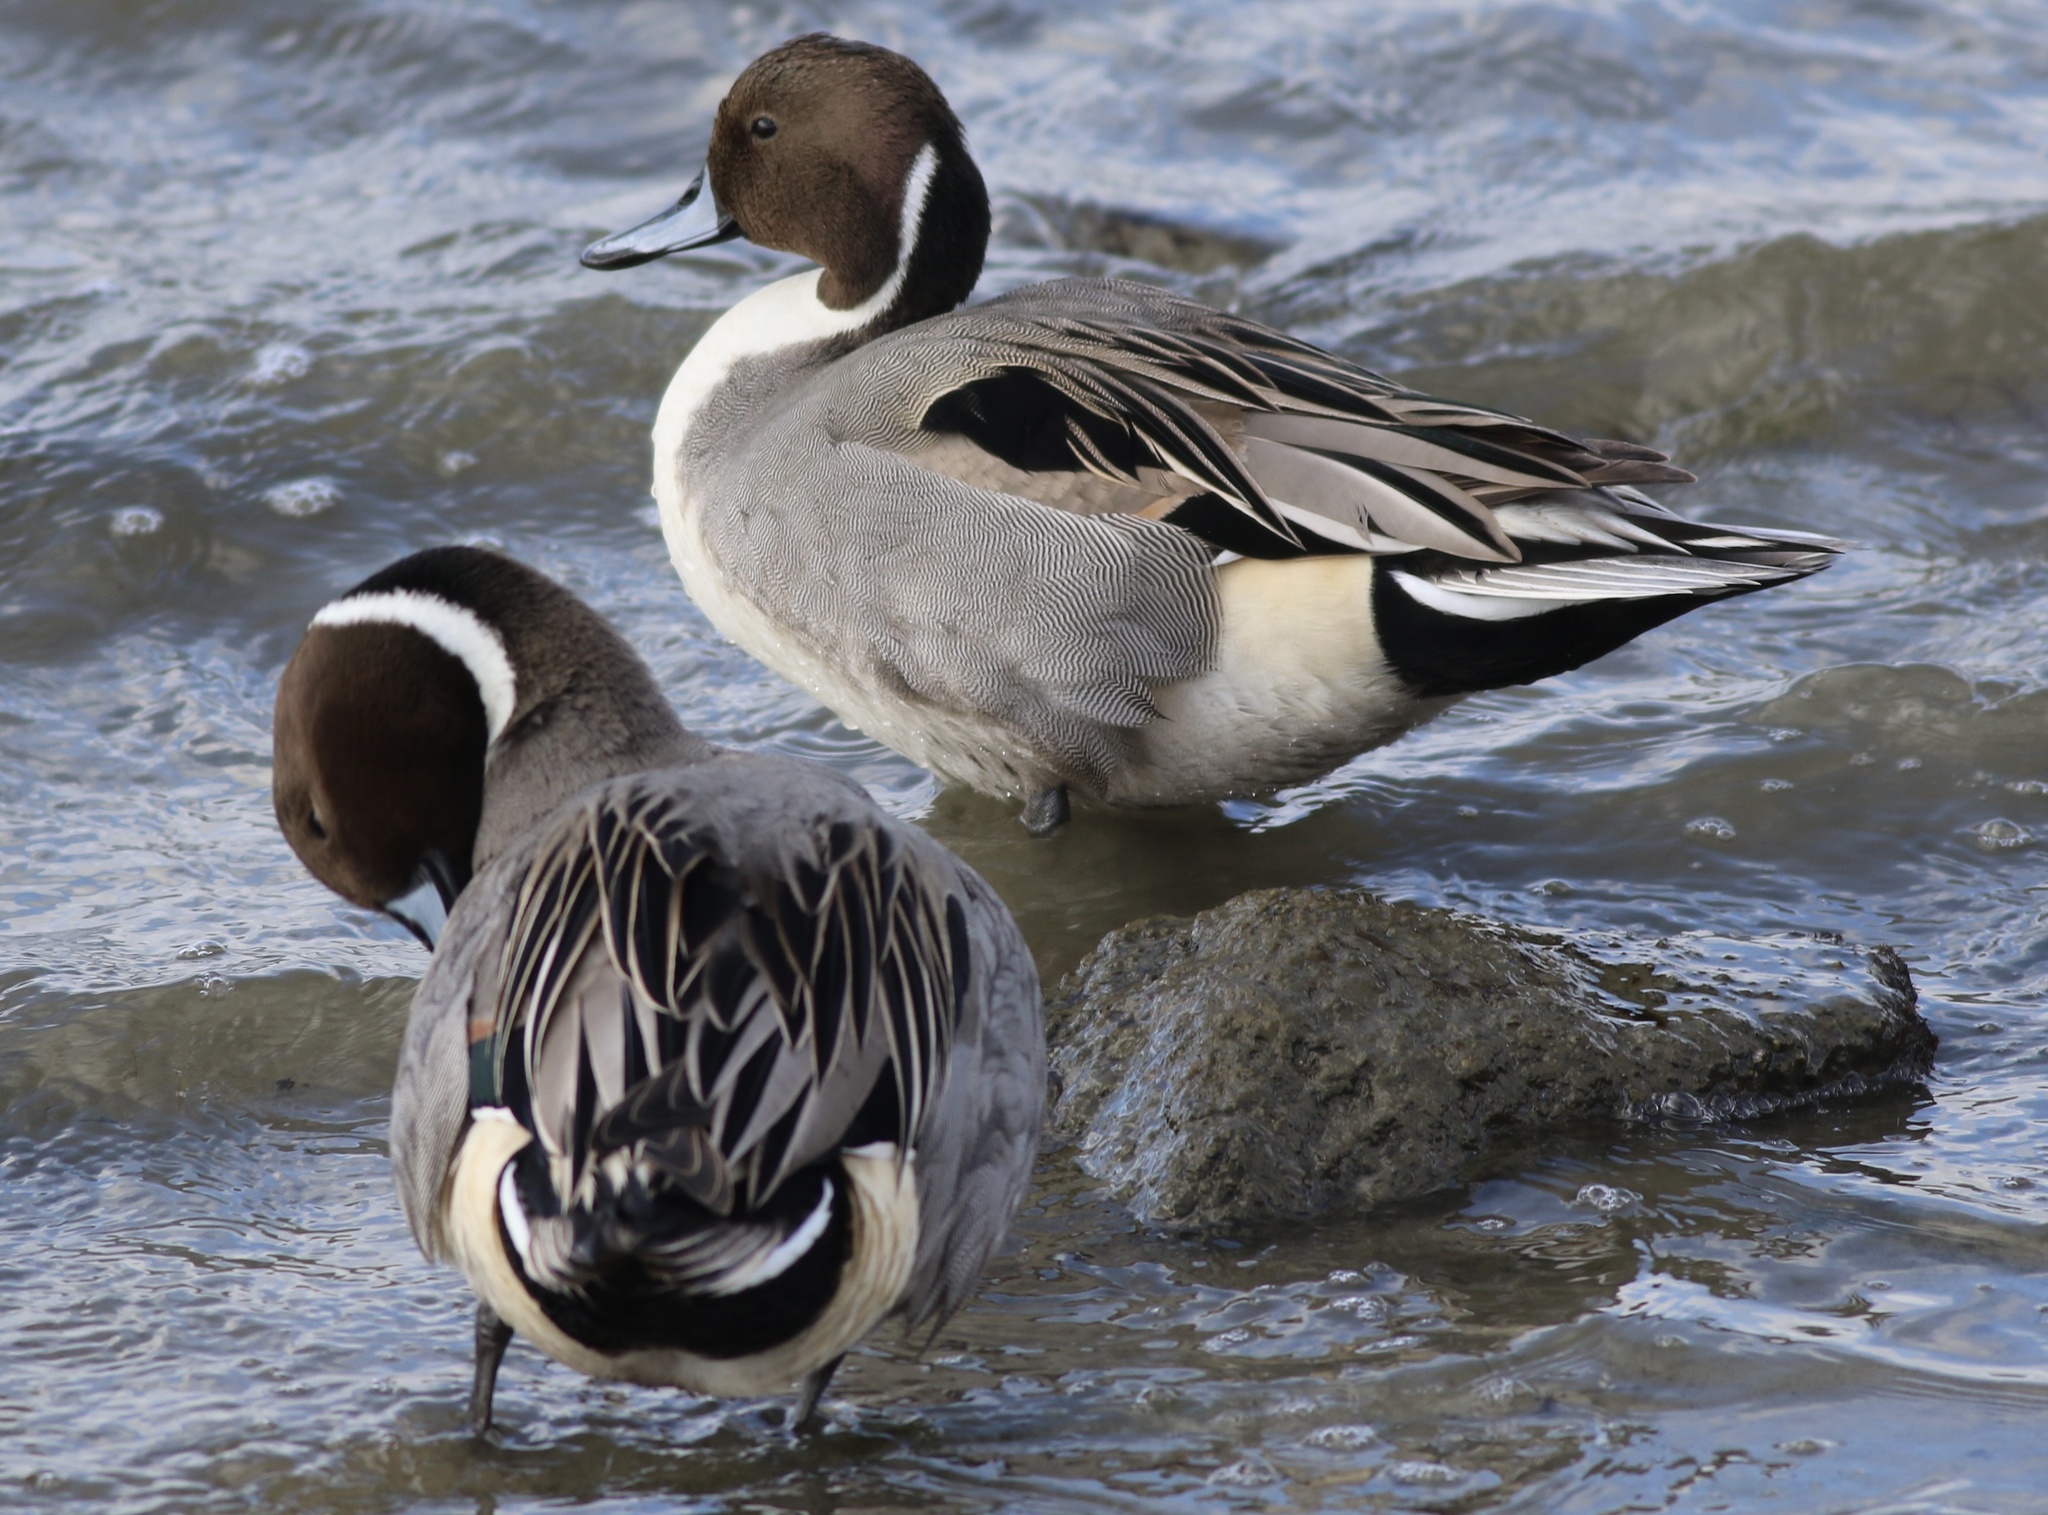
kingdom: Animalia
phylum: Chordata
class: Aves
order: Anseriformes
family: Anatidae
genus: Anas
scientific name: Anas acuta
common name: Northern pintail
